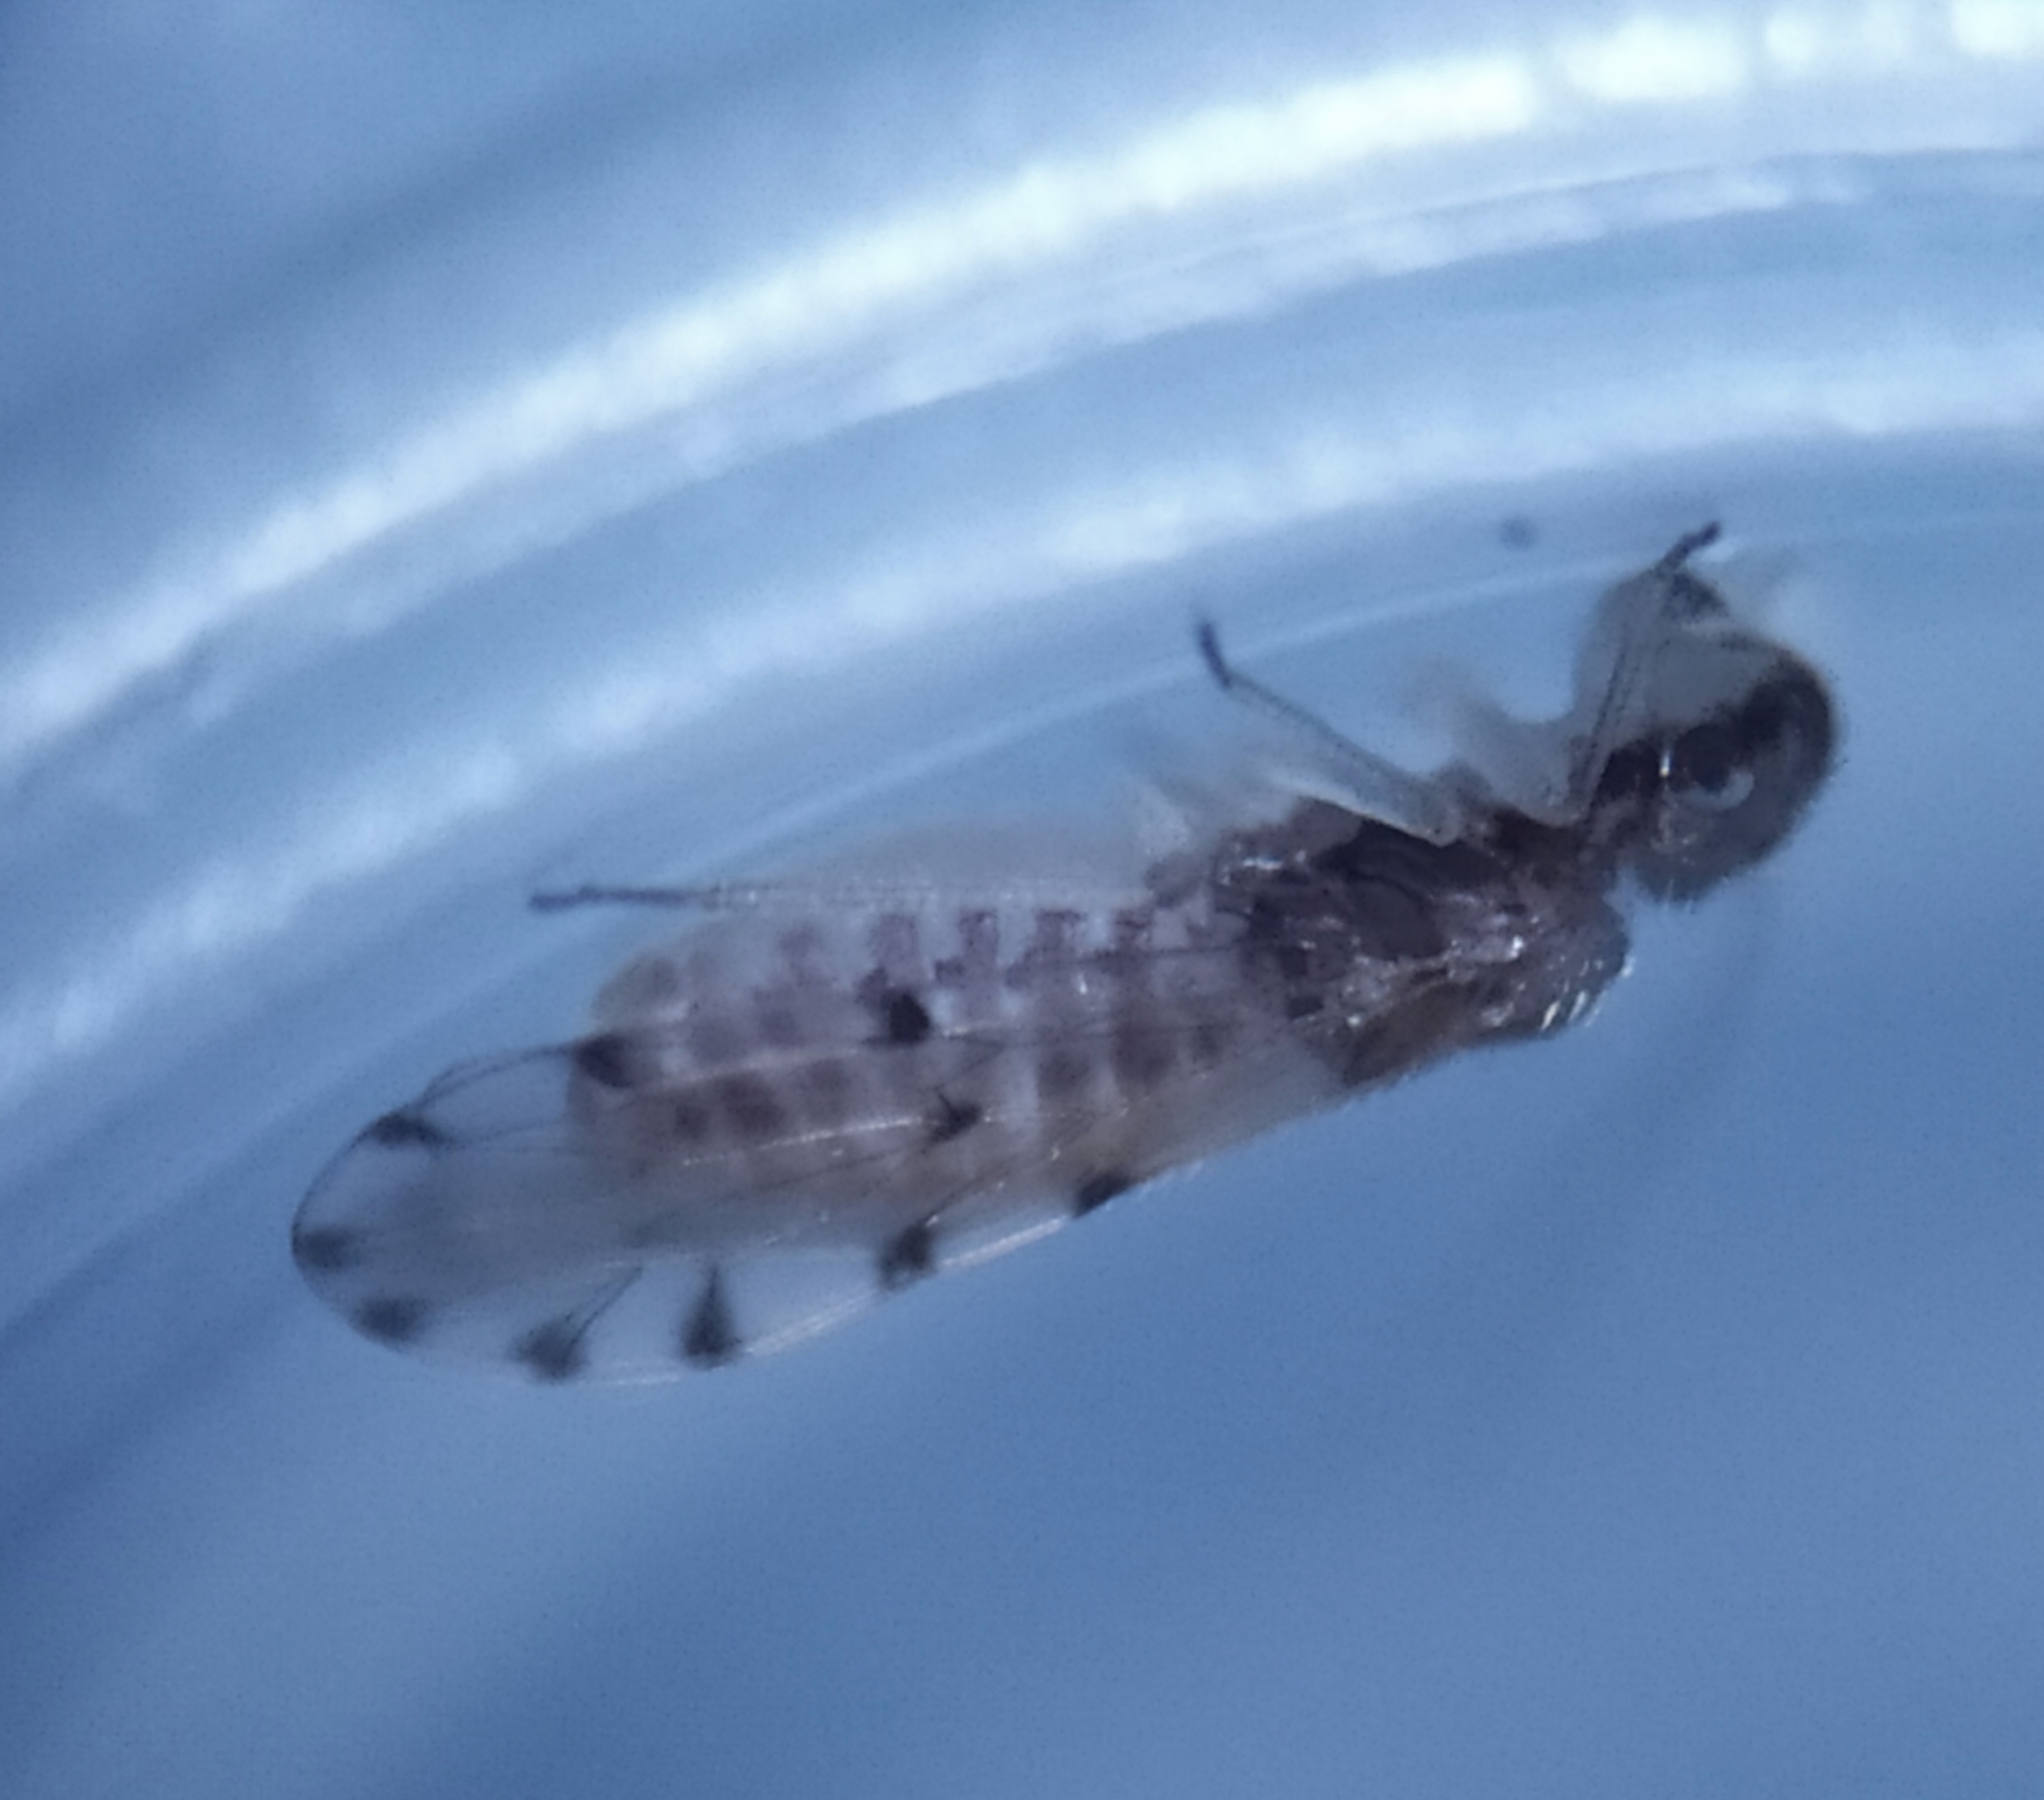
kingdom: Animalia
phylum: Arthropoda
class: Insecta
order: Psocodea
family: Ectopsocidae
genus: Ectopsocus
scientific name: Ectopsocus petersi
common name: Medium-sized bark louse
